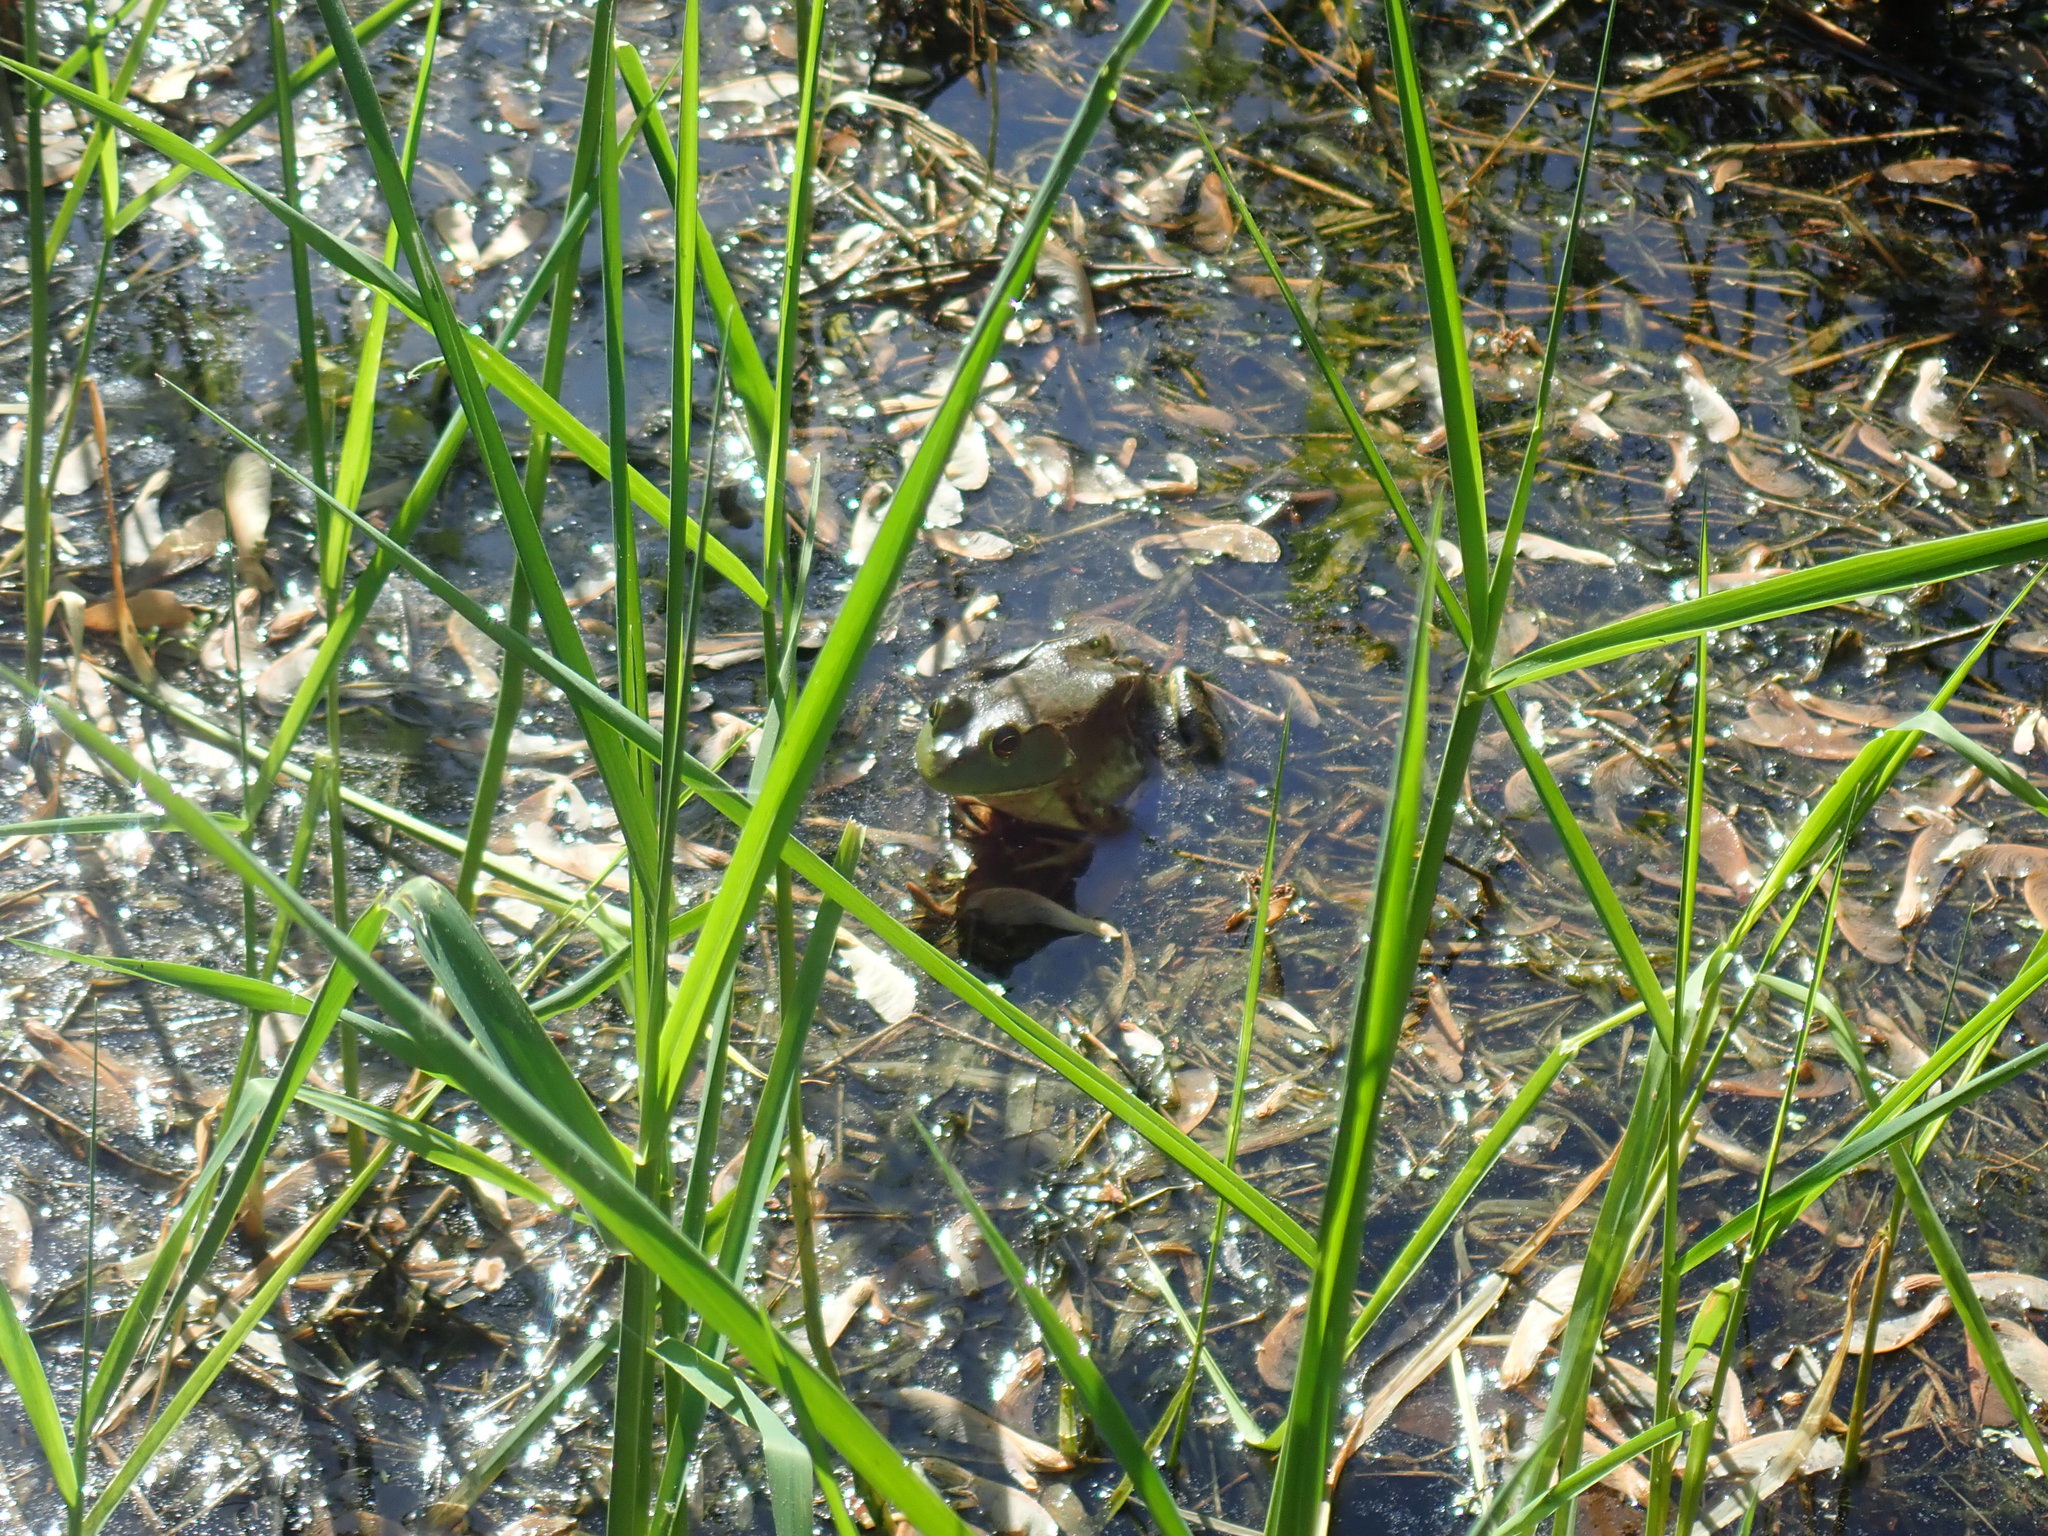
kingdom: Animalia
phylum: Chordata
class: Amphibia
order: Anura
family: Ranidae
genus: Lithobates
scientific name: Lithobates catesbeianus
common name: American bullfrog
